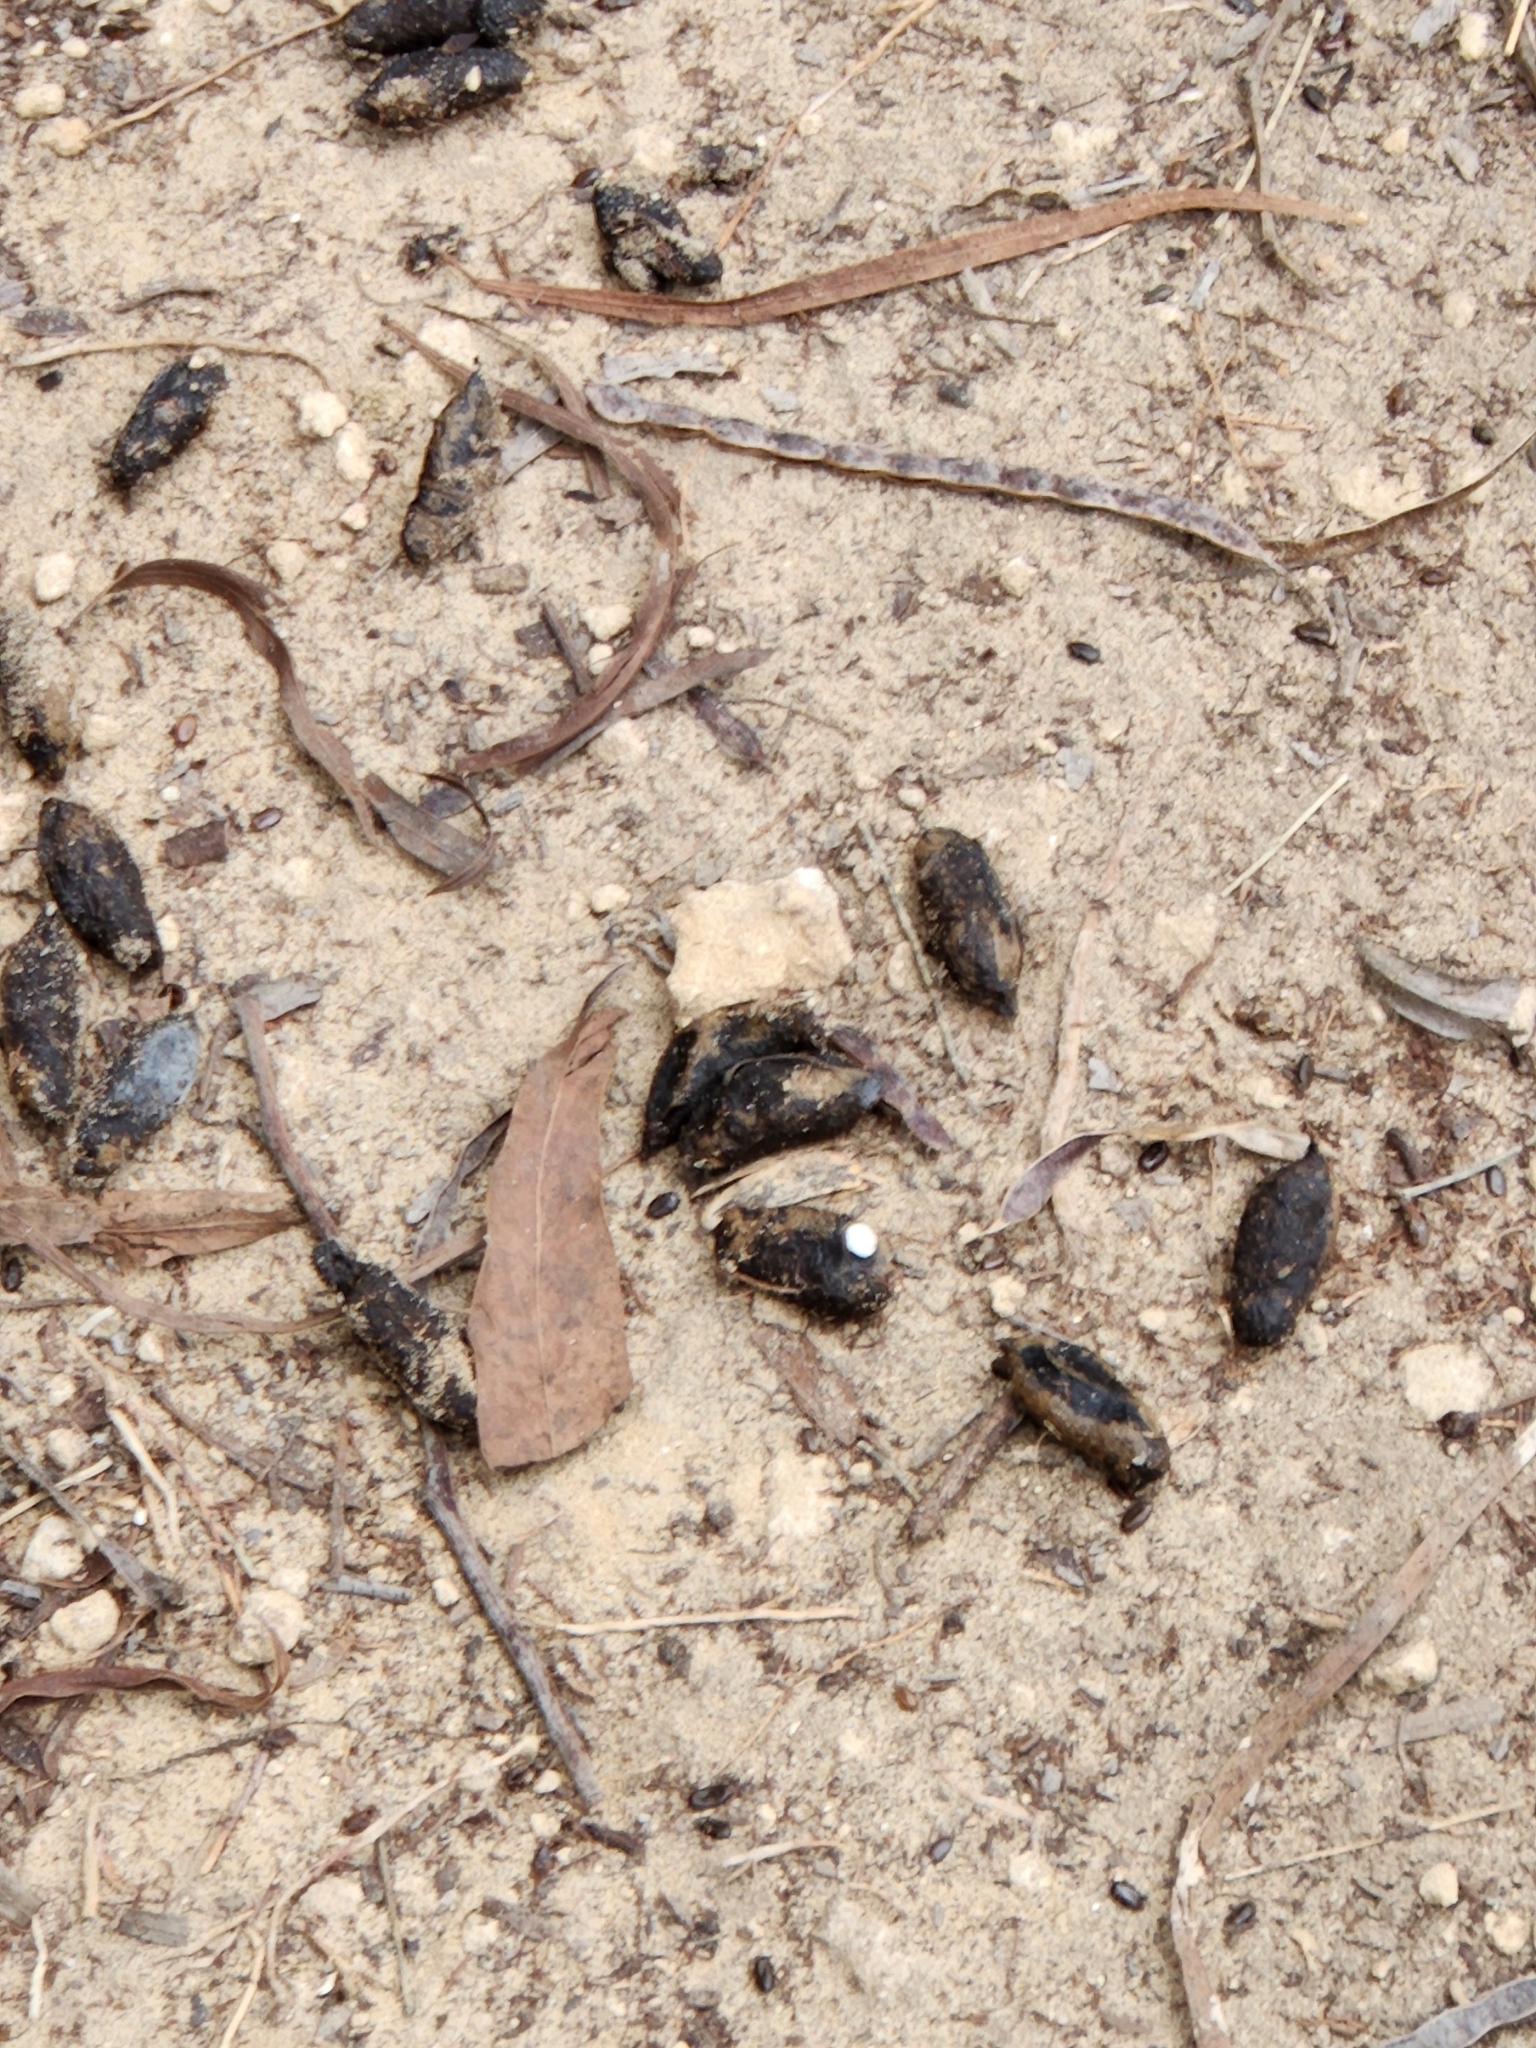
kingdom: Animalia
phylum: Chordata
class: Mammalia
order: Rodentia
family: Hystricidae
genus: Hystrix
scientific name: Hystrix indica
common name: Indian crested porcupine
